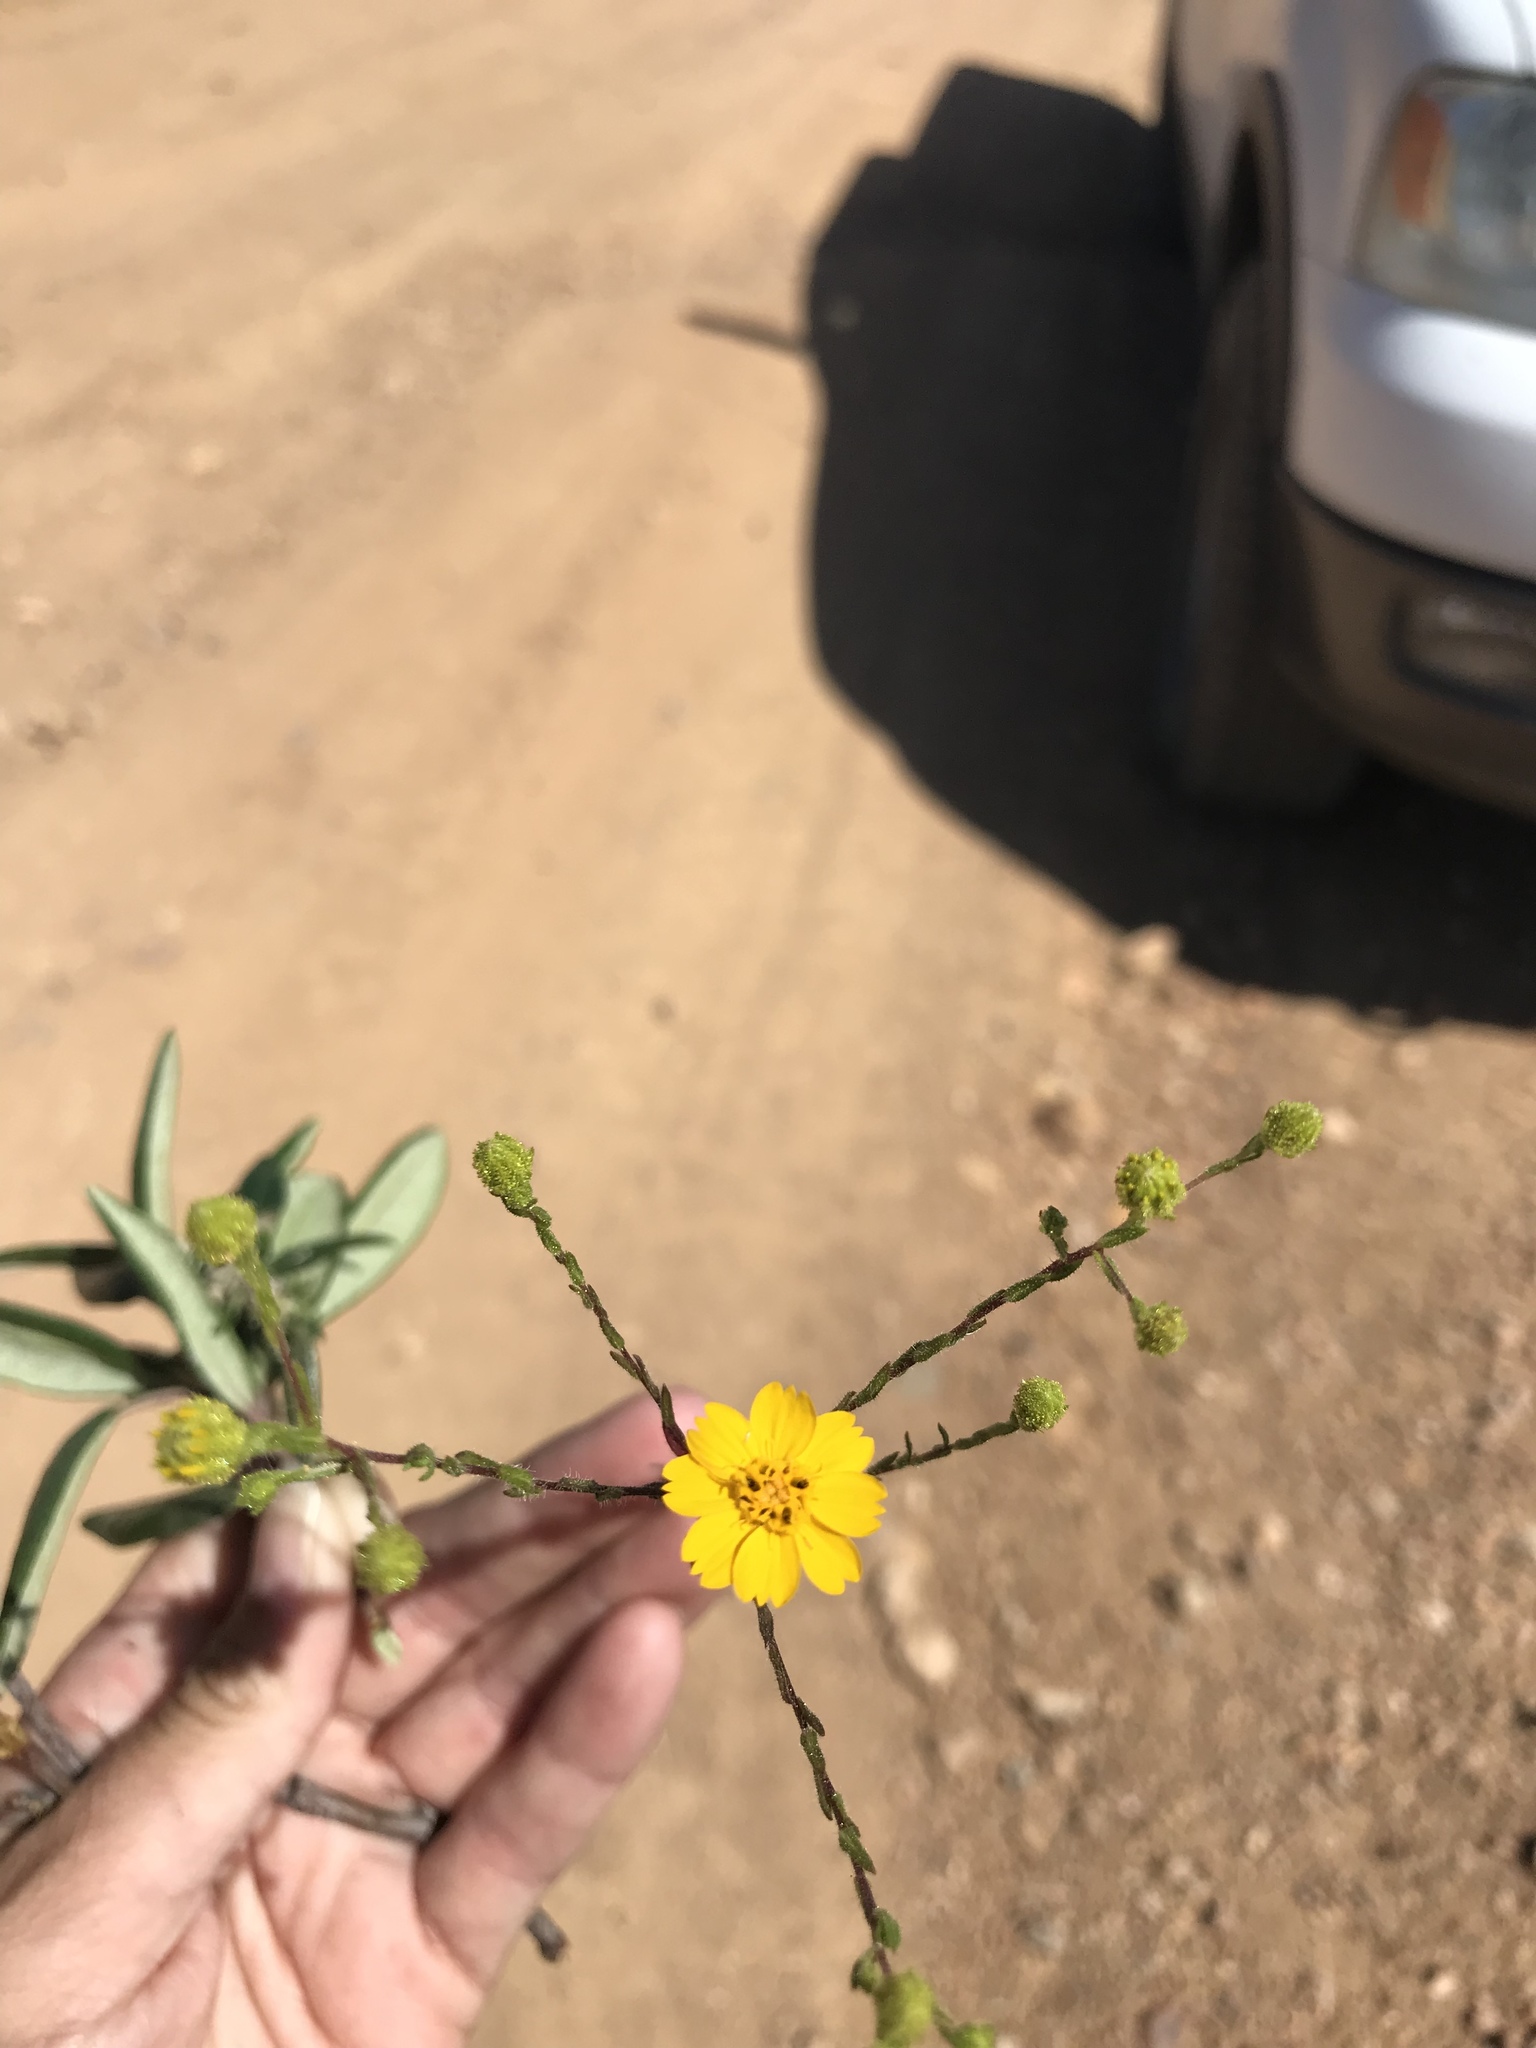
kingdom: Plantae
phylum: Tracheophyta
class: Magnoliopsida
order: Asterales
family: Asteraceae
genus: Deinandra
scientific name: Deinandra conjugens
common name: Otay tarplant
